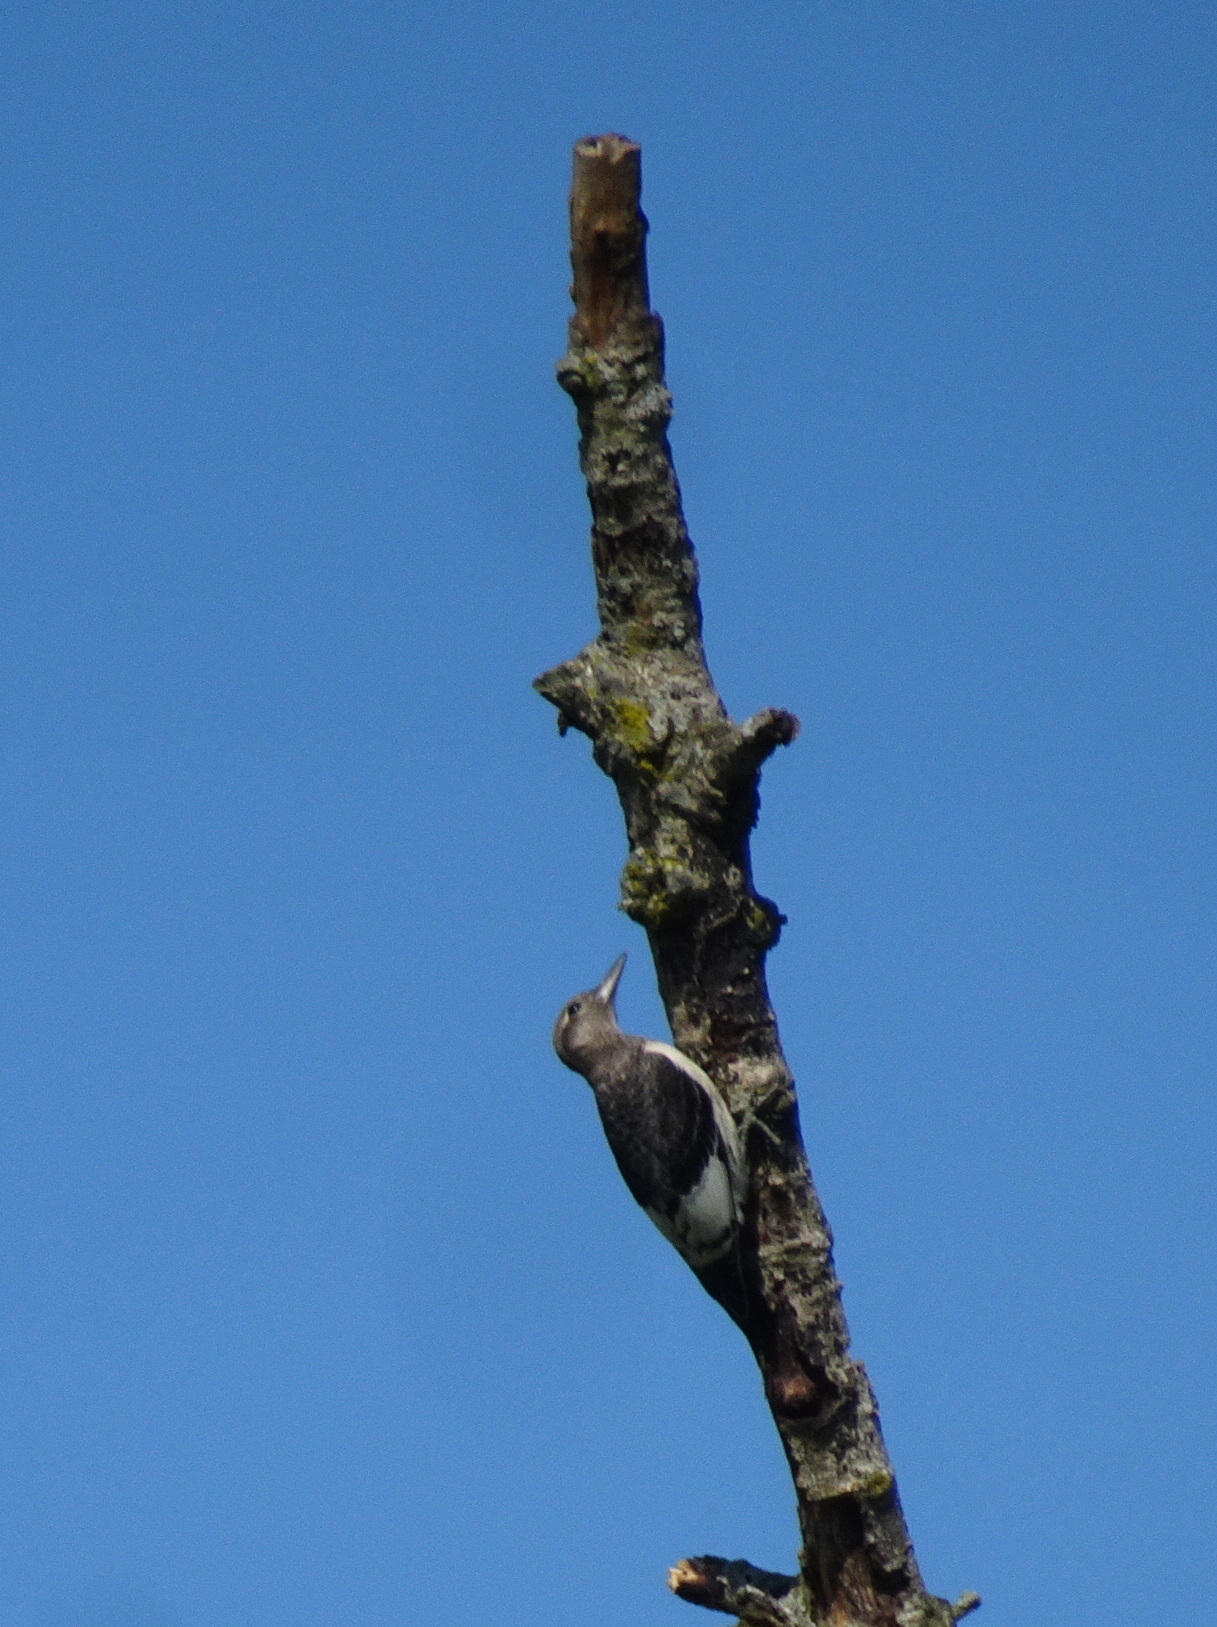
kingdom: Animalia
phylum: Chordata
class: Aves
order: Piciformes
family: Picidae
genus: Melanerpes
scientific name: Melanerpes erythrocephalus
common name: Red-headed woodpecker
